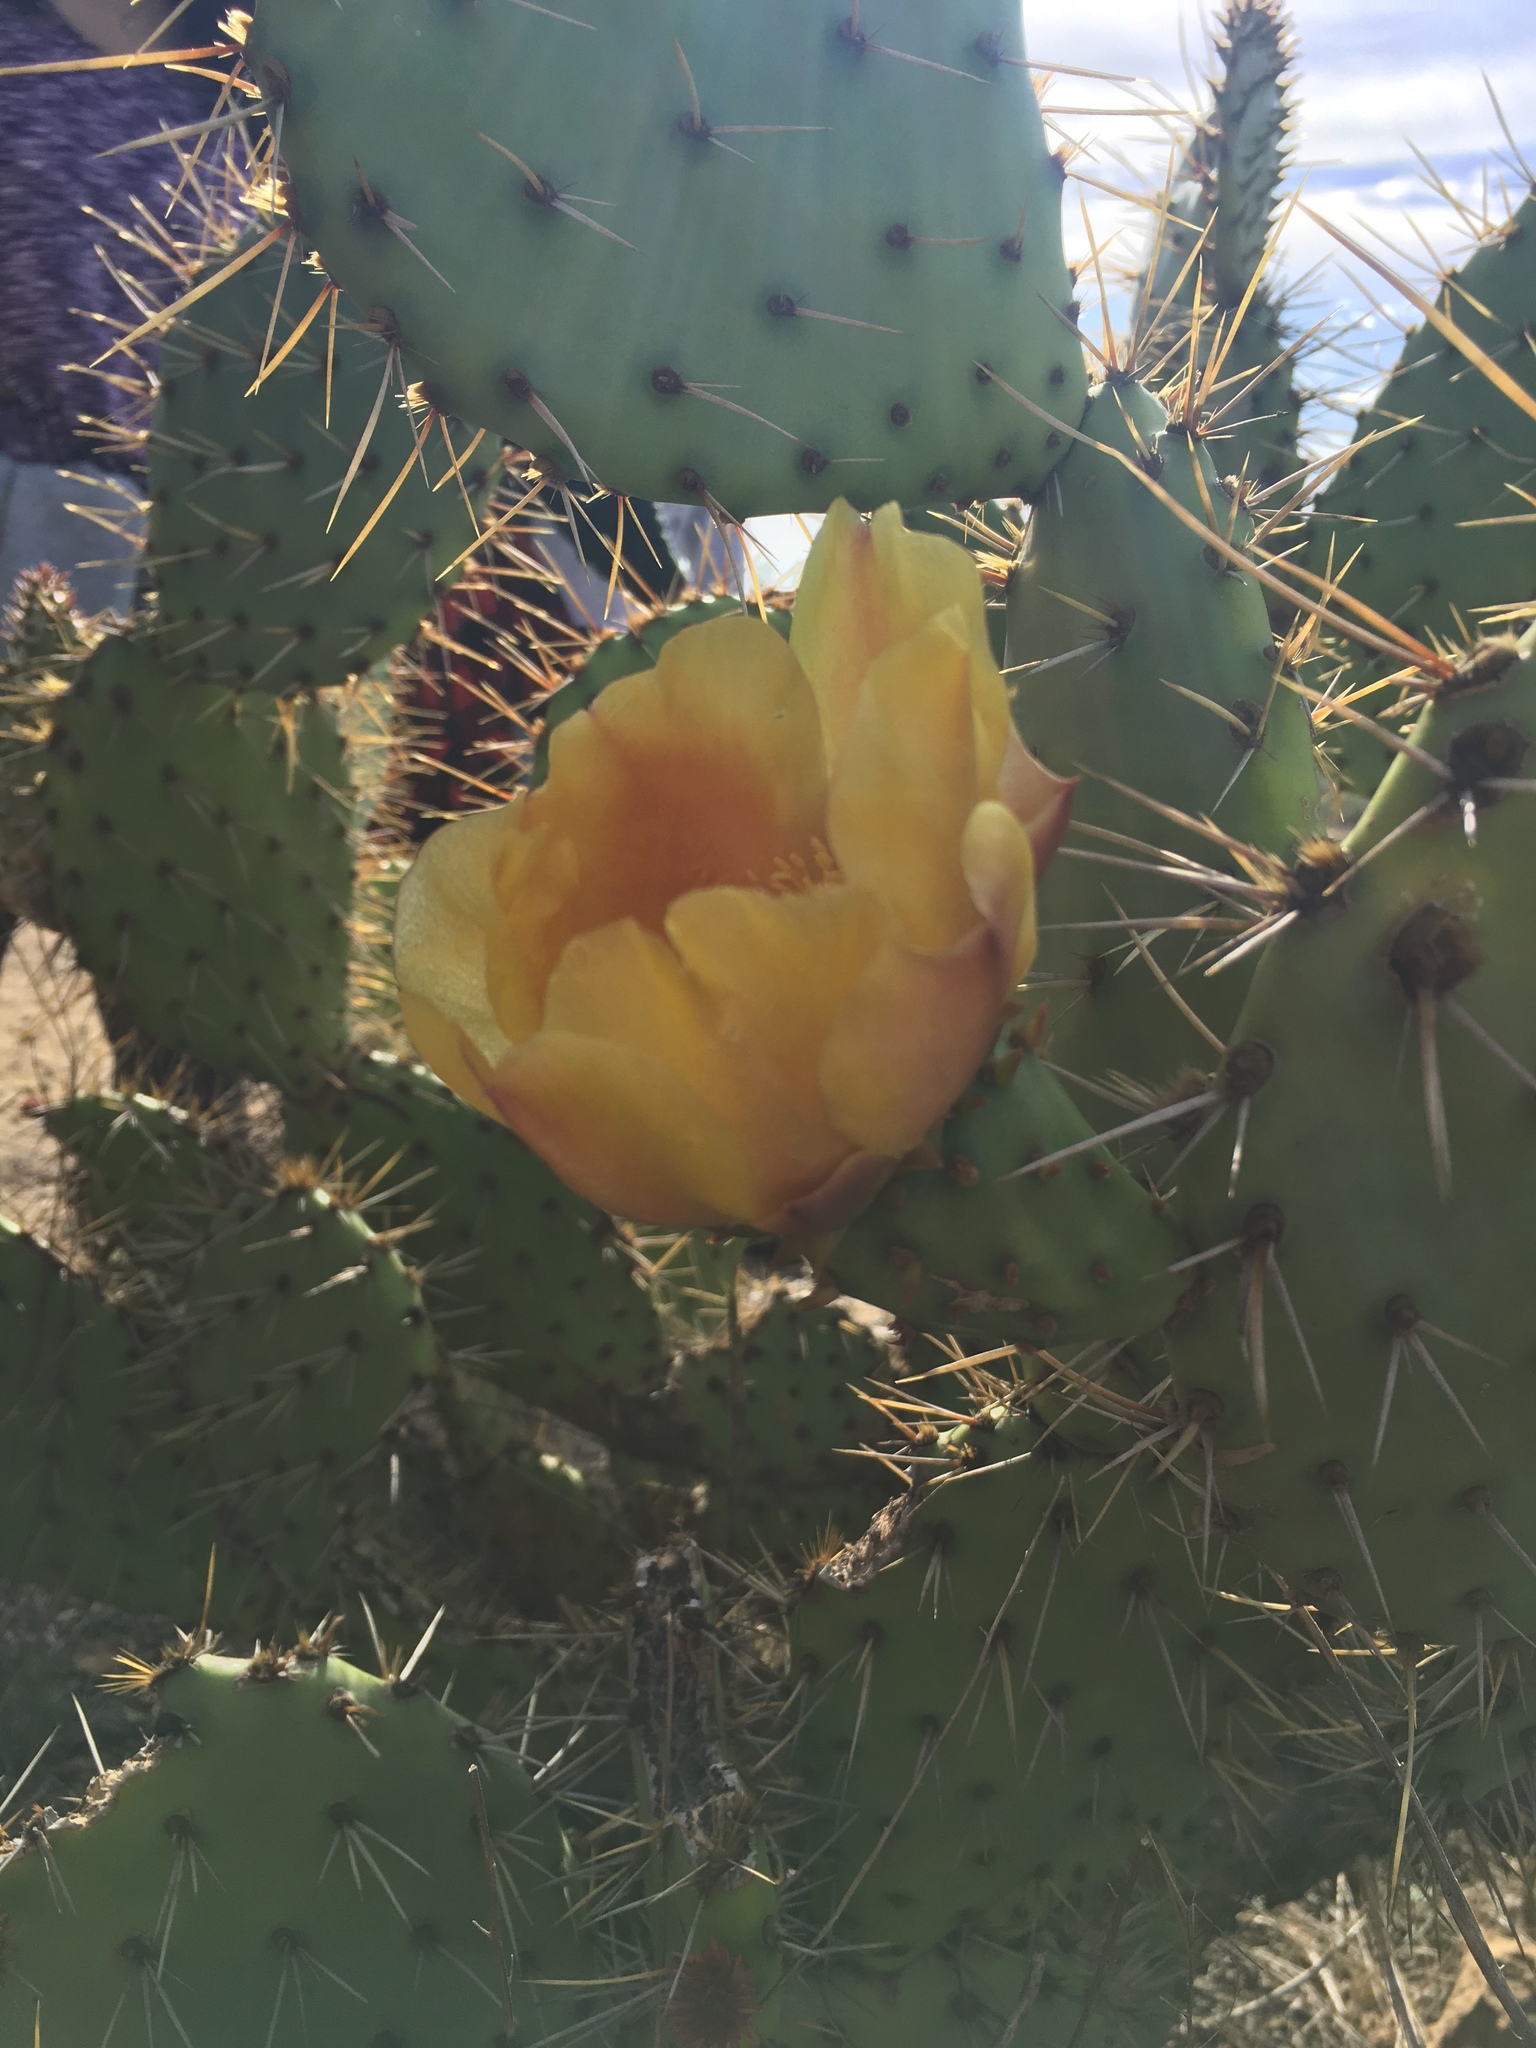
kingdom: Plantae
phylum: Tracheophyta
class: Magnoliopsida
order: Caryophyllales
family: Cactaceae
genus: Opuntia
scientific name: Opuntia littoralis
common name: Coastal prickly-pear
